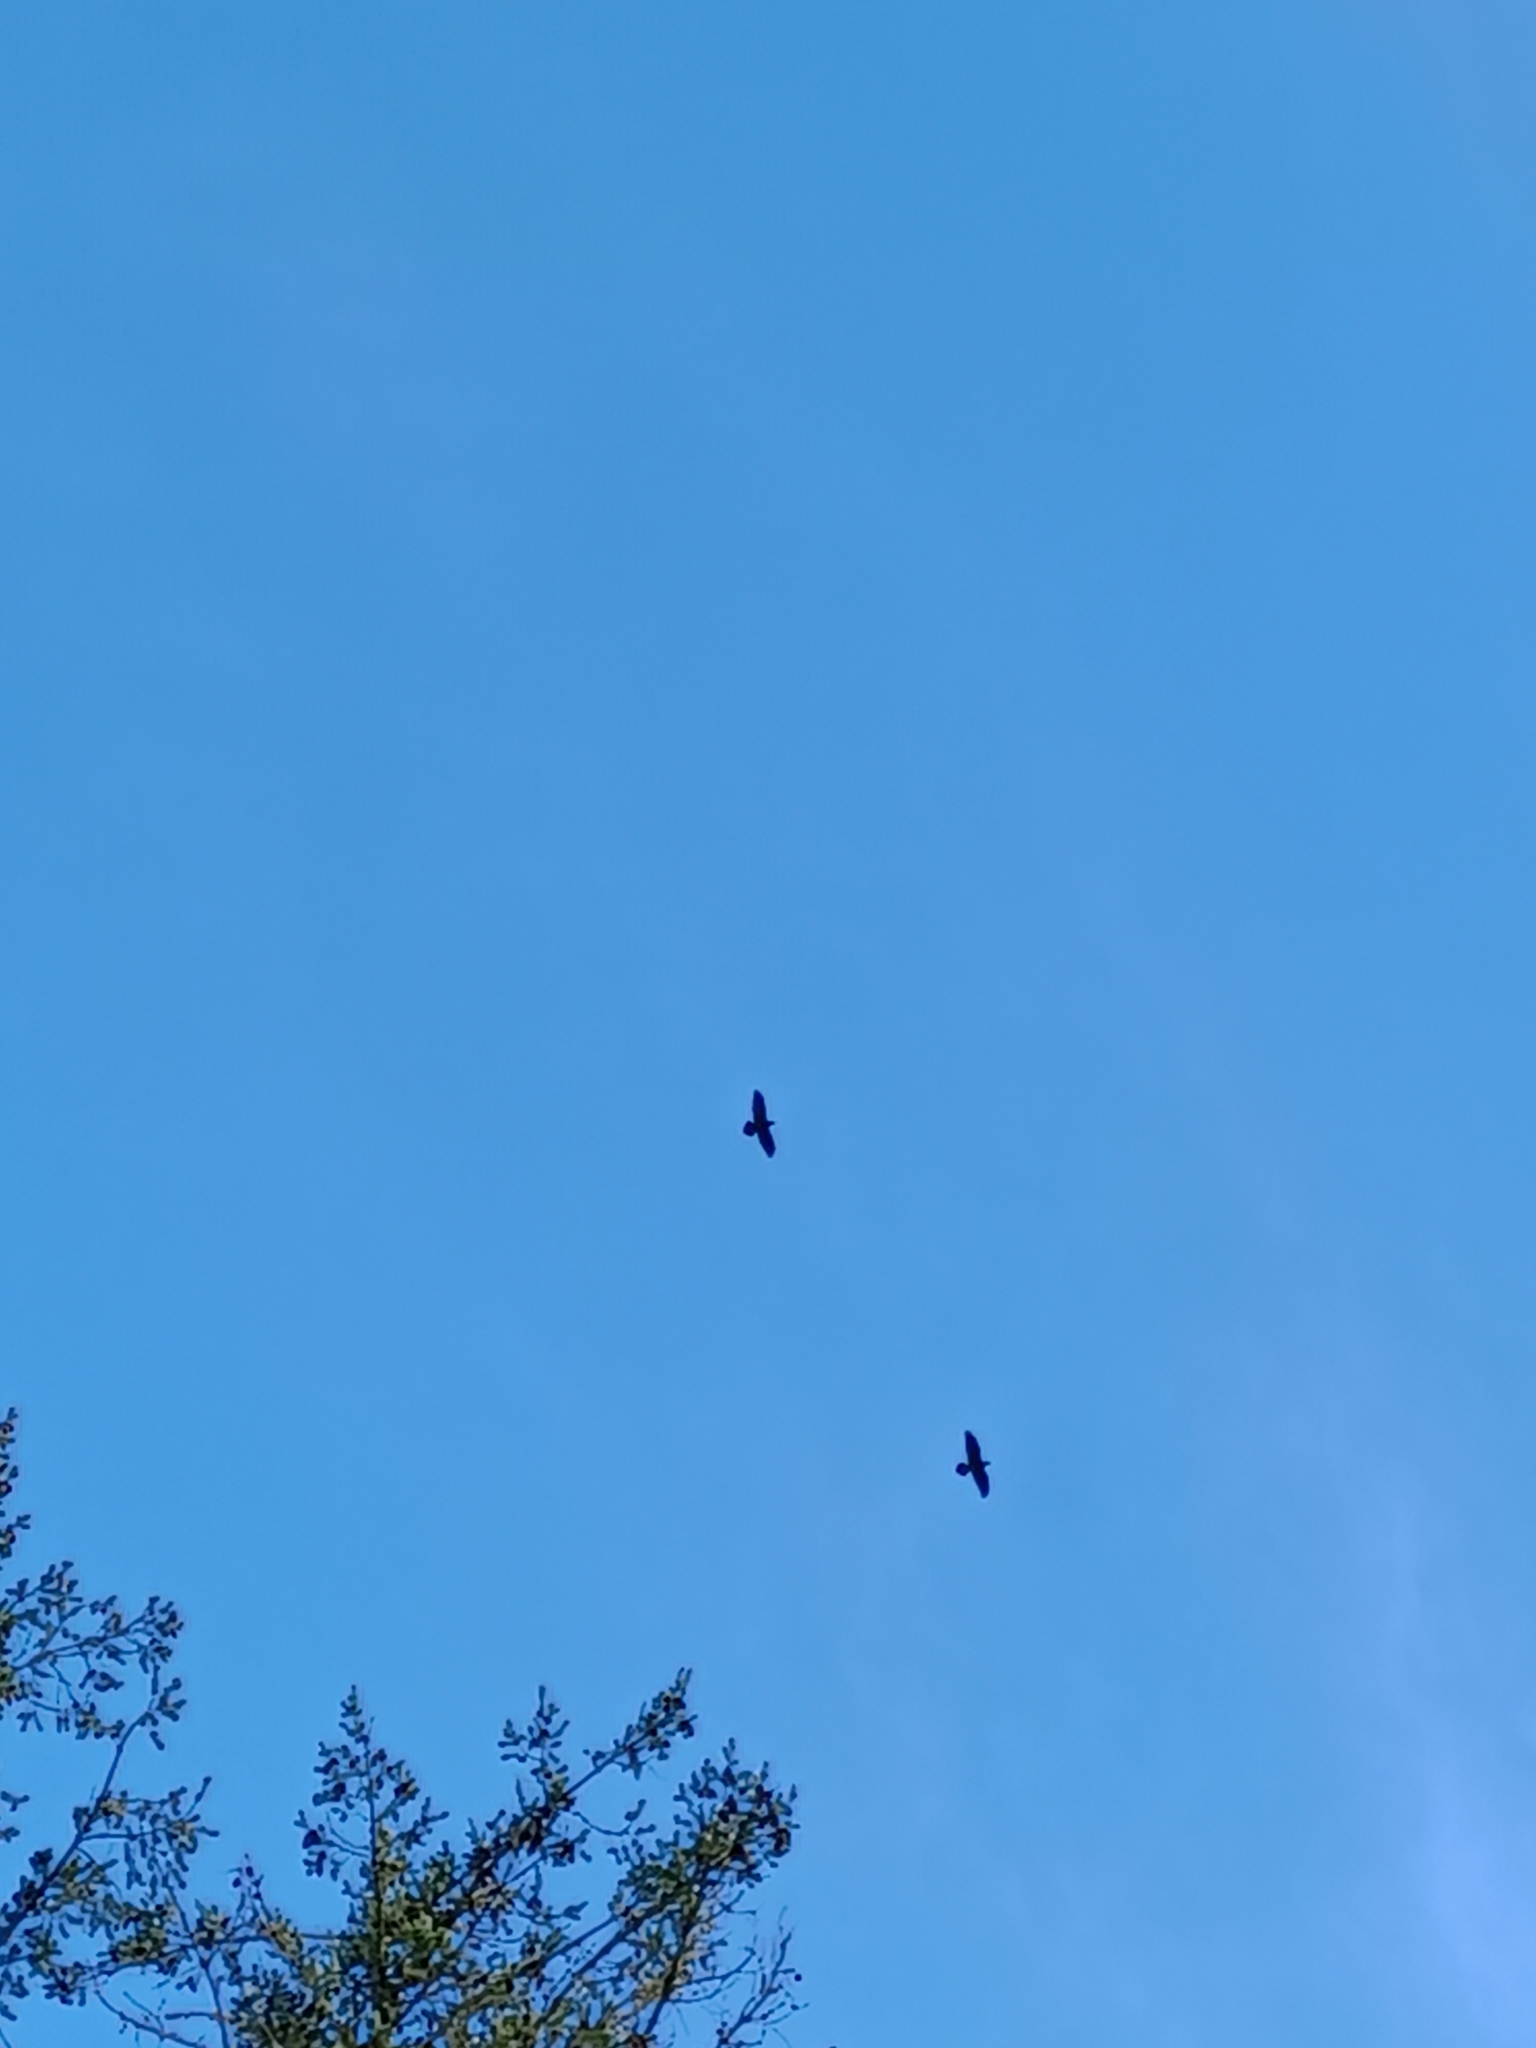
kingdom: Animalia
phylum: Chordata
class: Aves
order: Passeriformes
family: Corvidae
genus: Corvus
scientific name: Corvus corax
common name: Common raven
